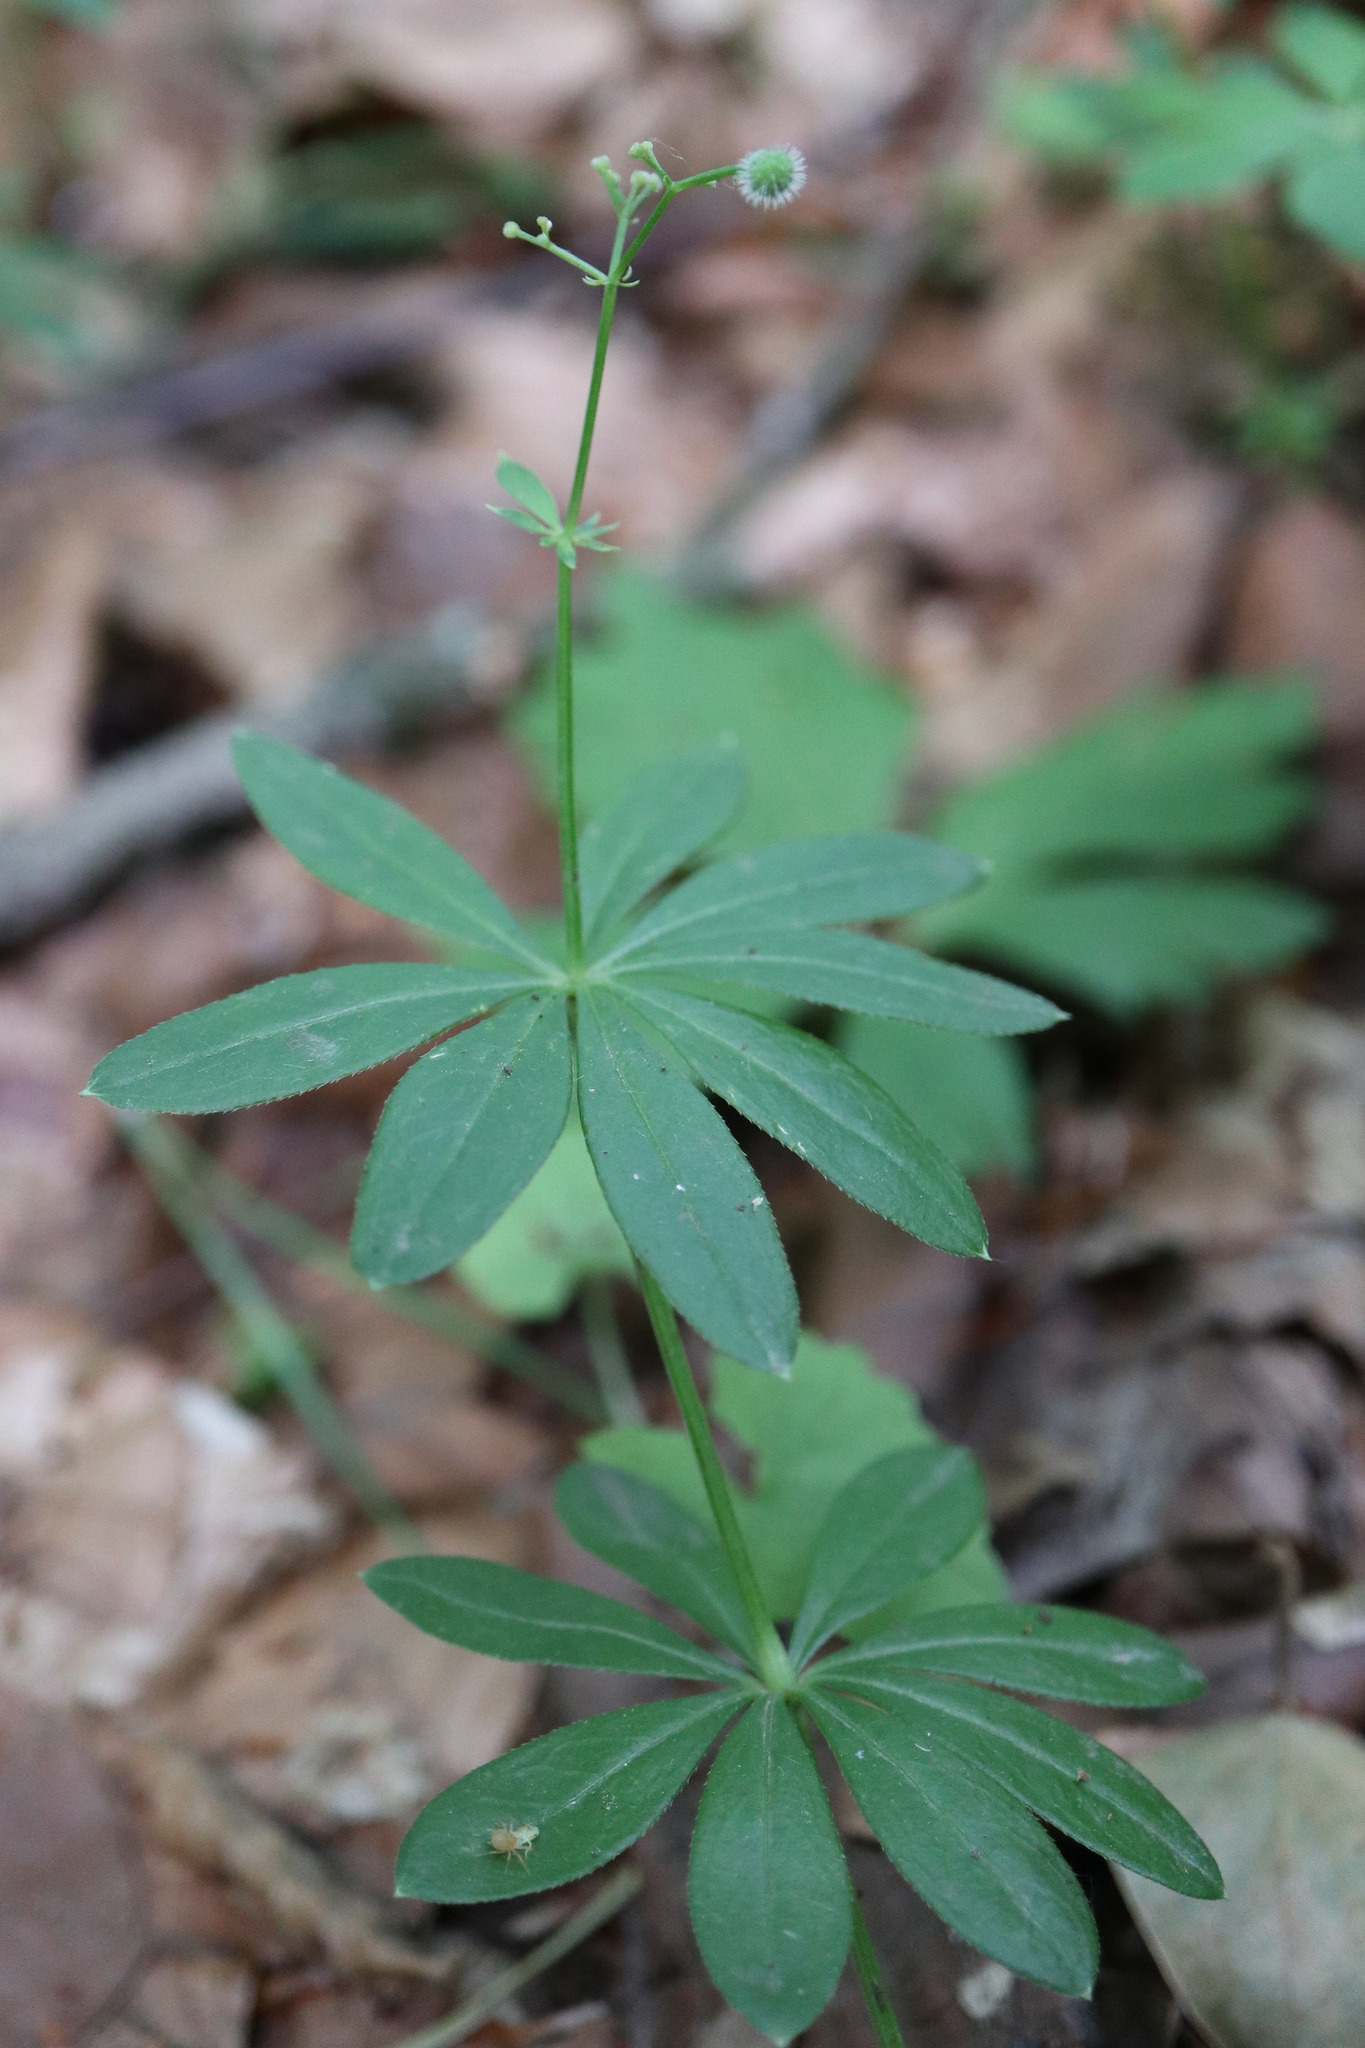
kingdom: Plantae
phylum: Tracheophyta
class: Magnoliopsida
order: Gentianales
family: Rubiaceae
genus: Galium
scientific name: Galium odoratum
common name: Sweet woodruff
